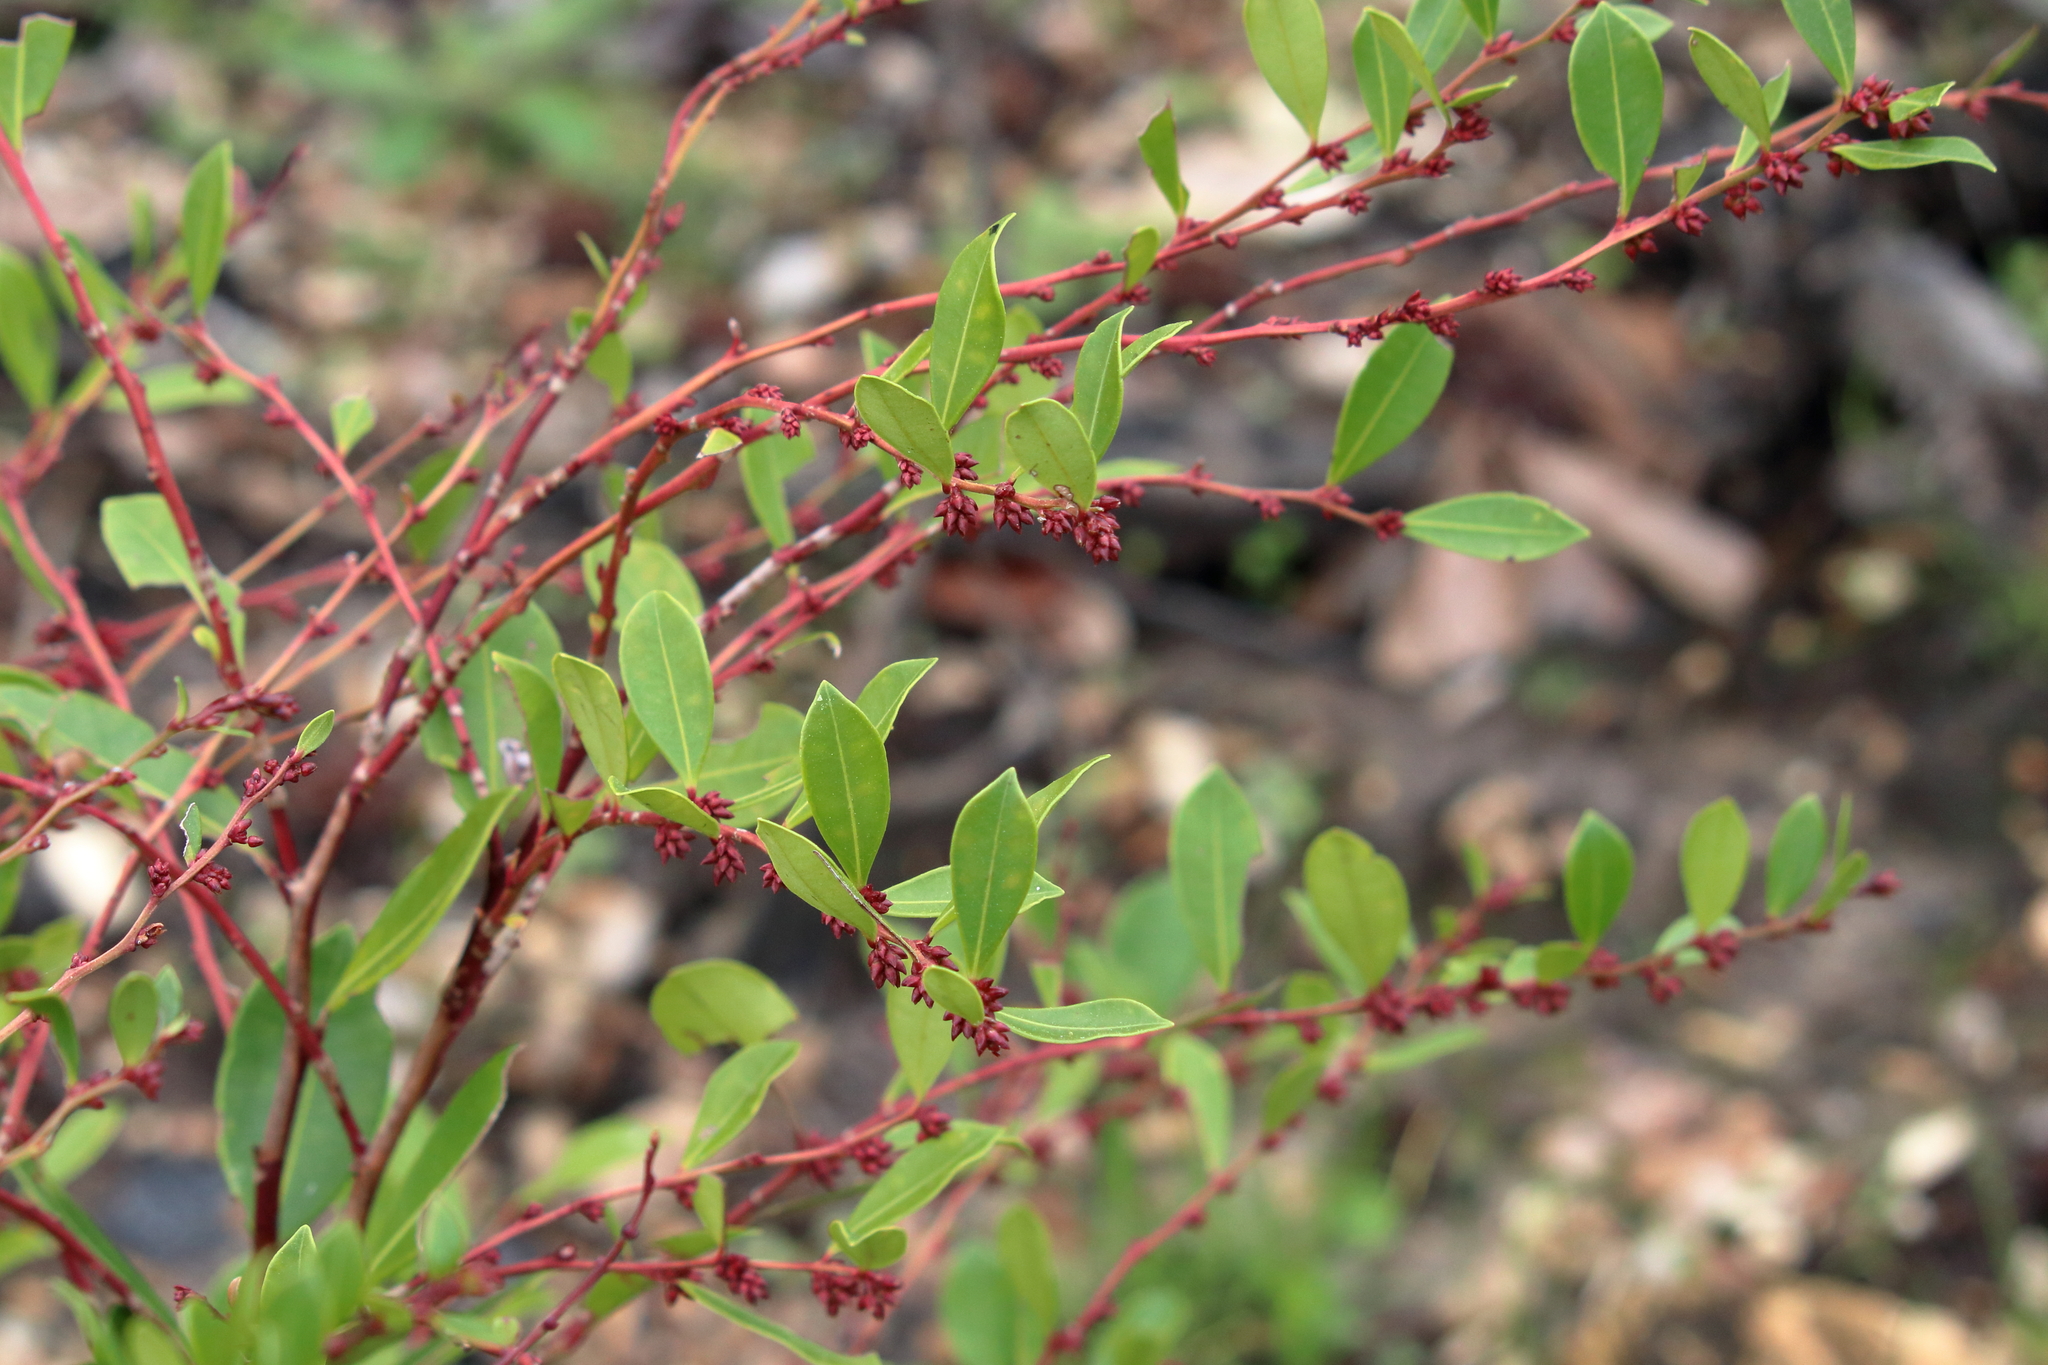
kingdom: Plantae
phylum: Tracheophyta
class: Magnoliopsida
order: Ericales
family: Ericaceae
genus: Lyonia
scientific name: Lyonia lucida
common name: Fetterbush
